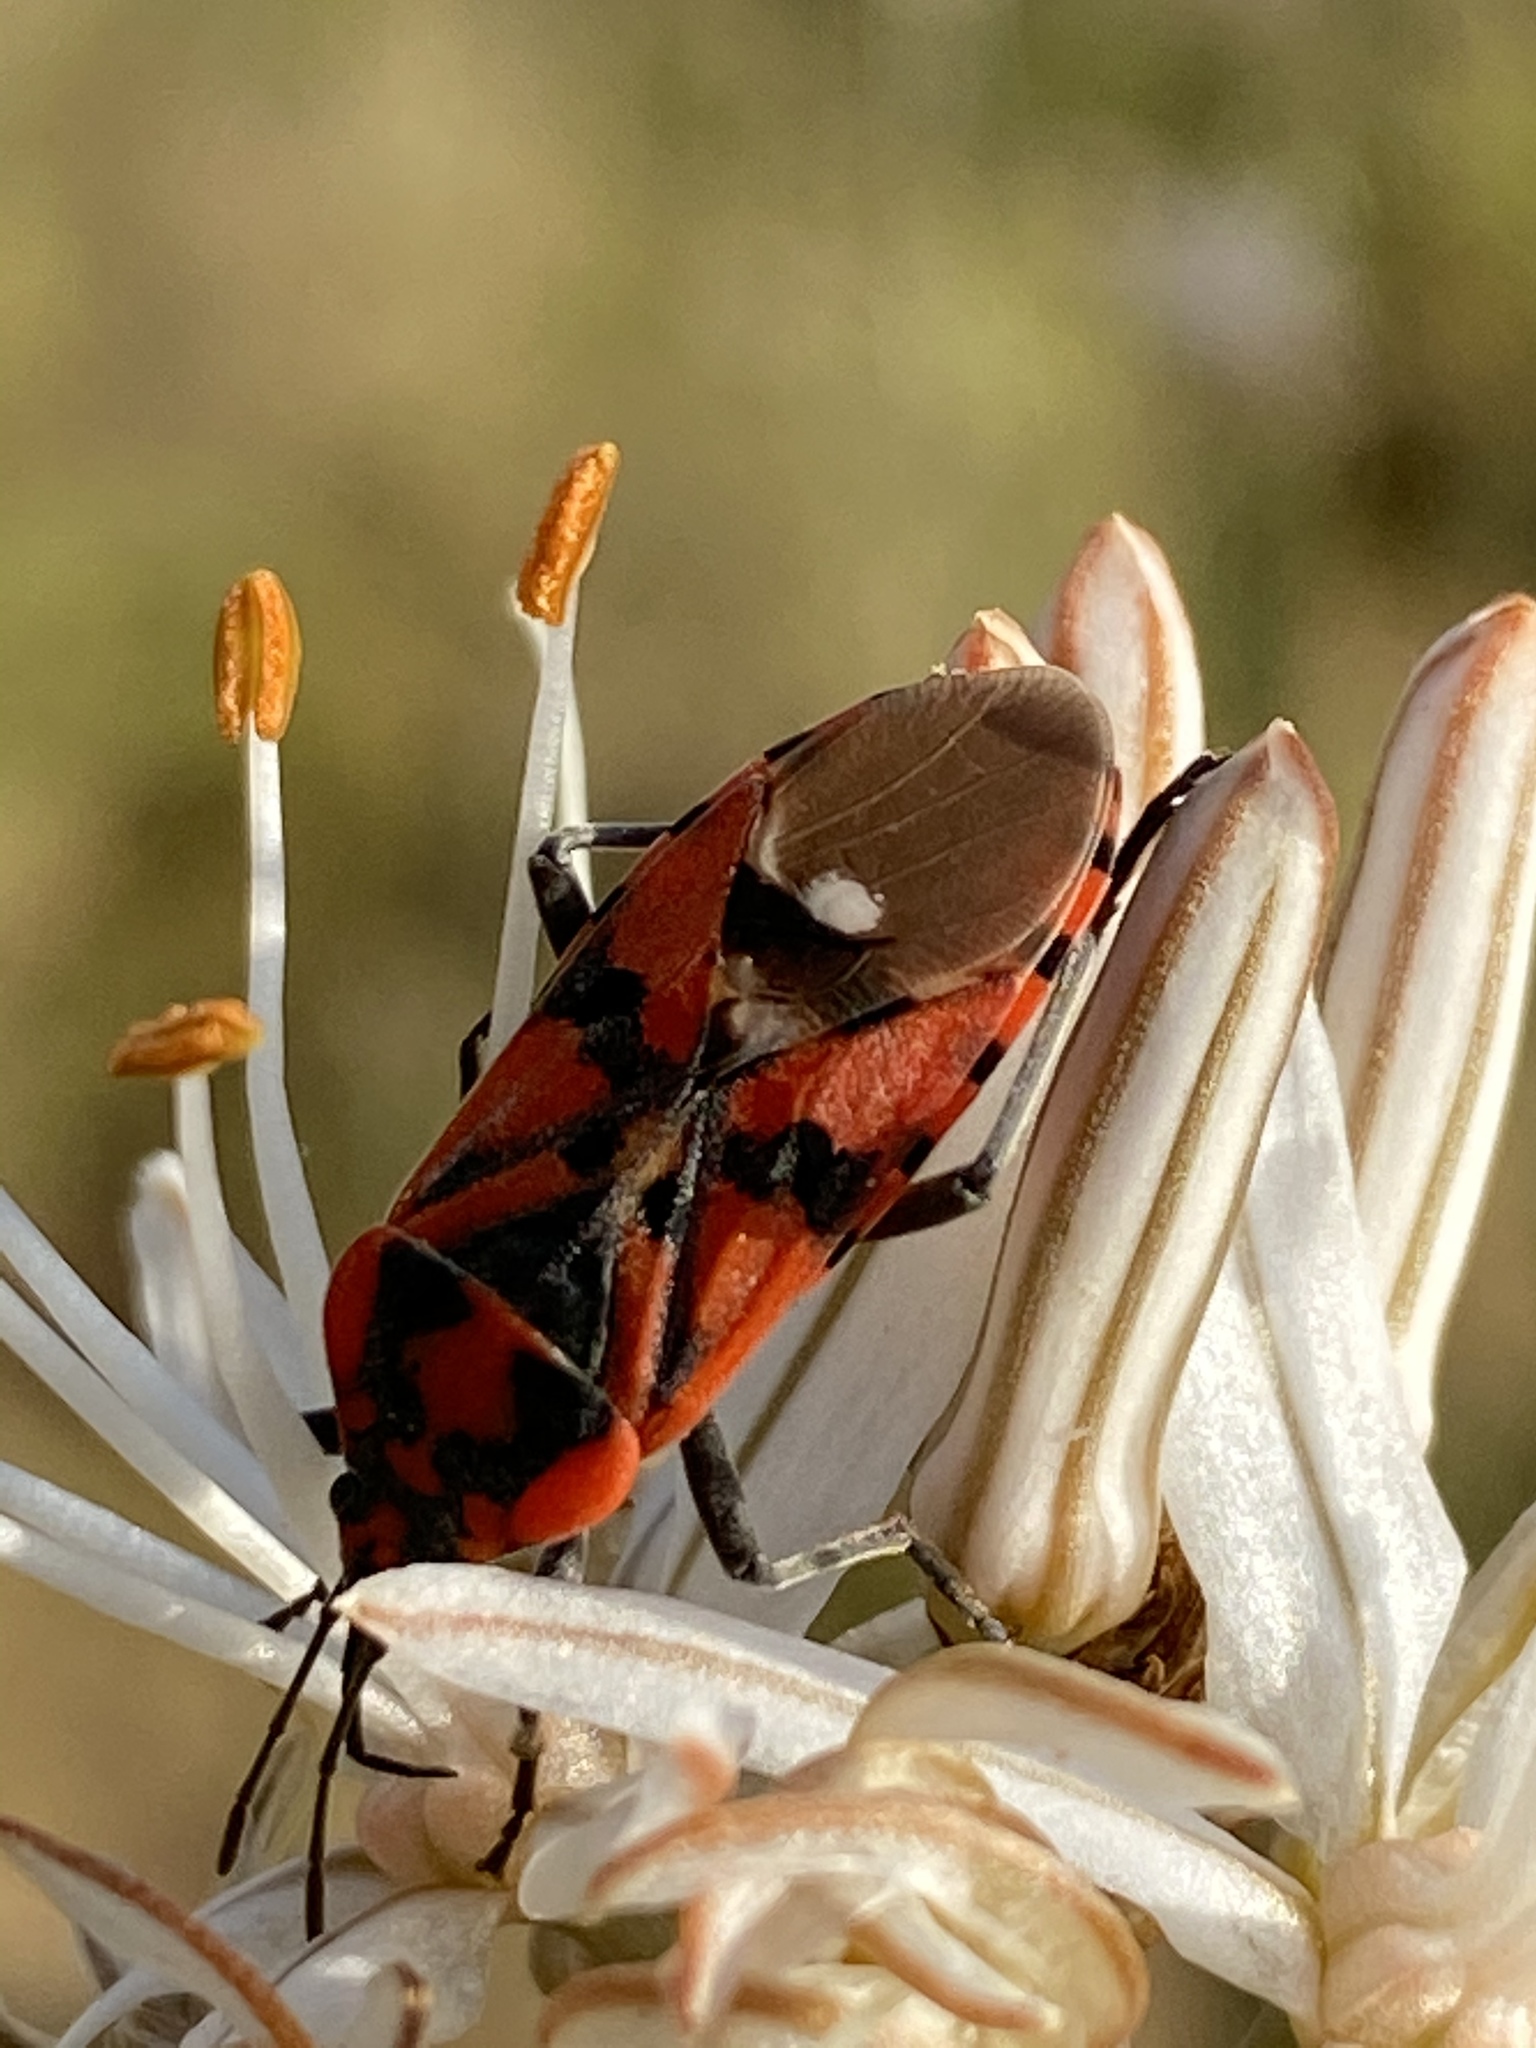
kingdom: Animalia
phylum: Arthropoda
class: Insecta
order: Hemiptera
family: Lygaeidae
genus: Spilostethus
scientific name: Spilostethus pandurus
